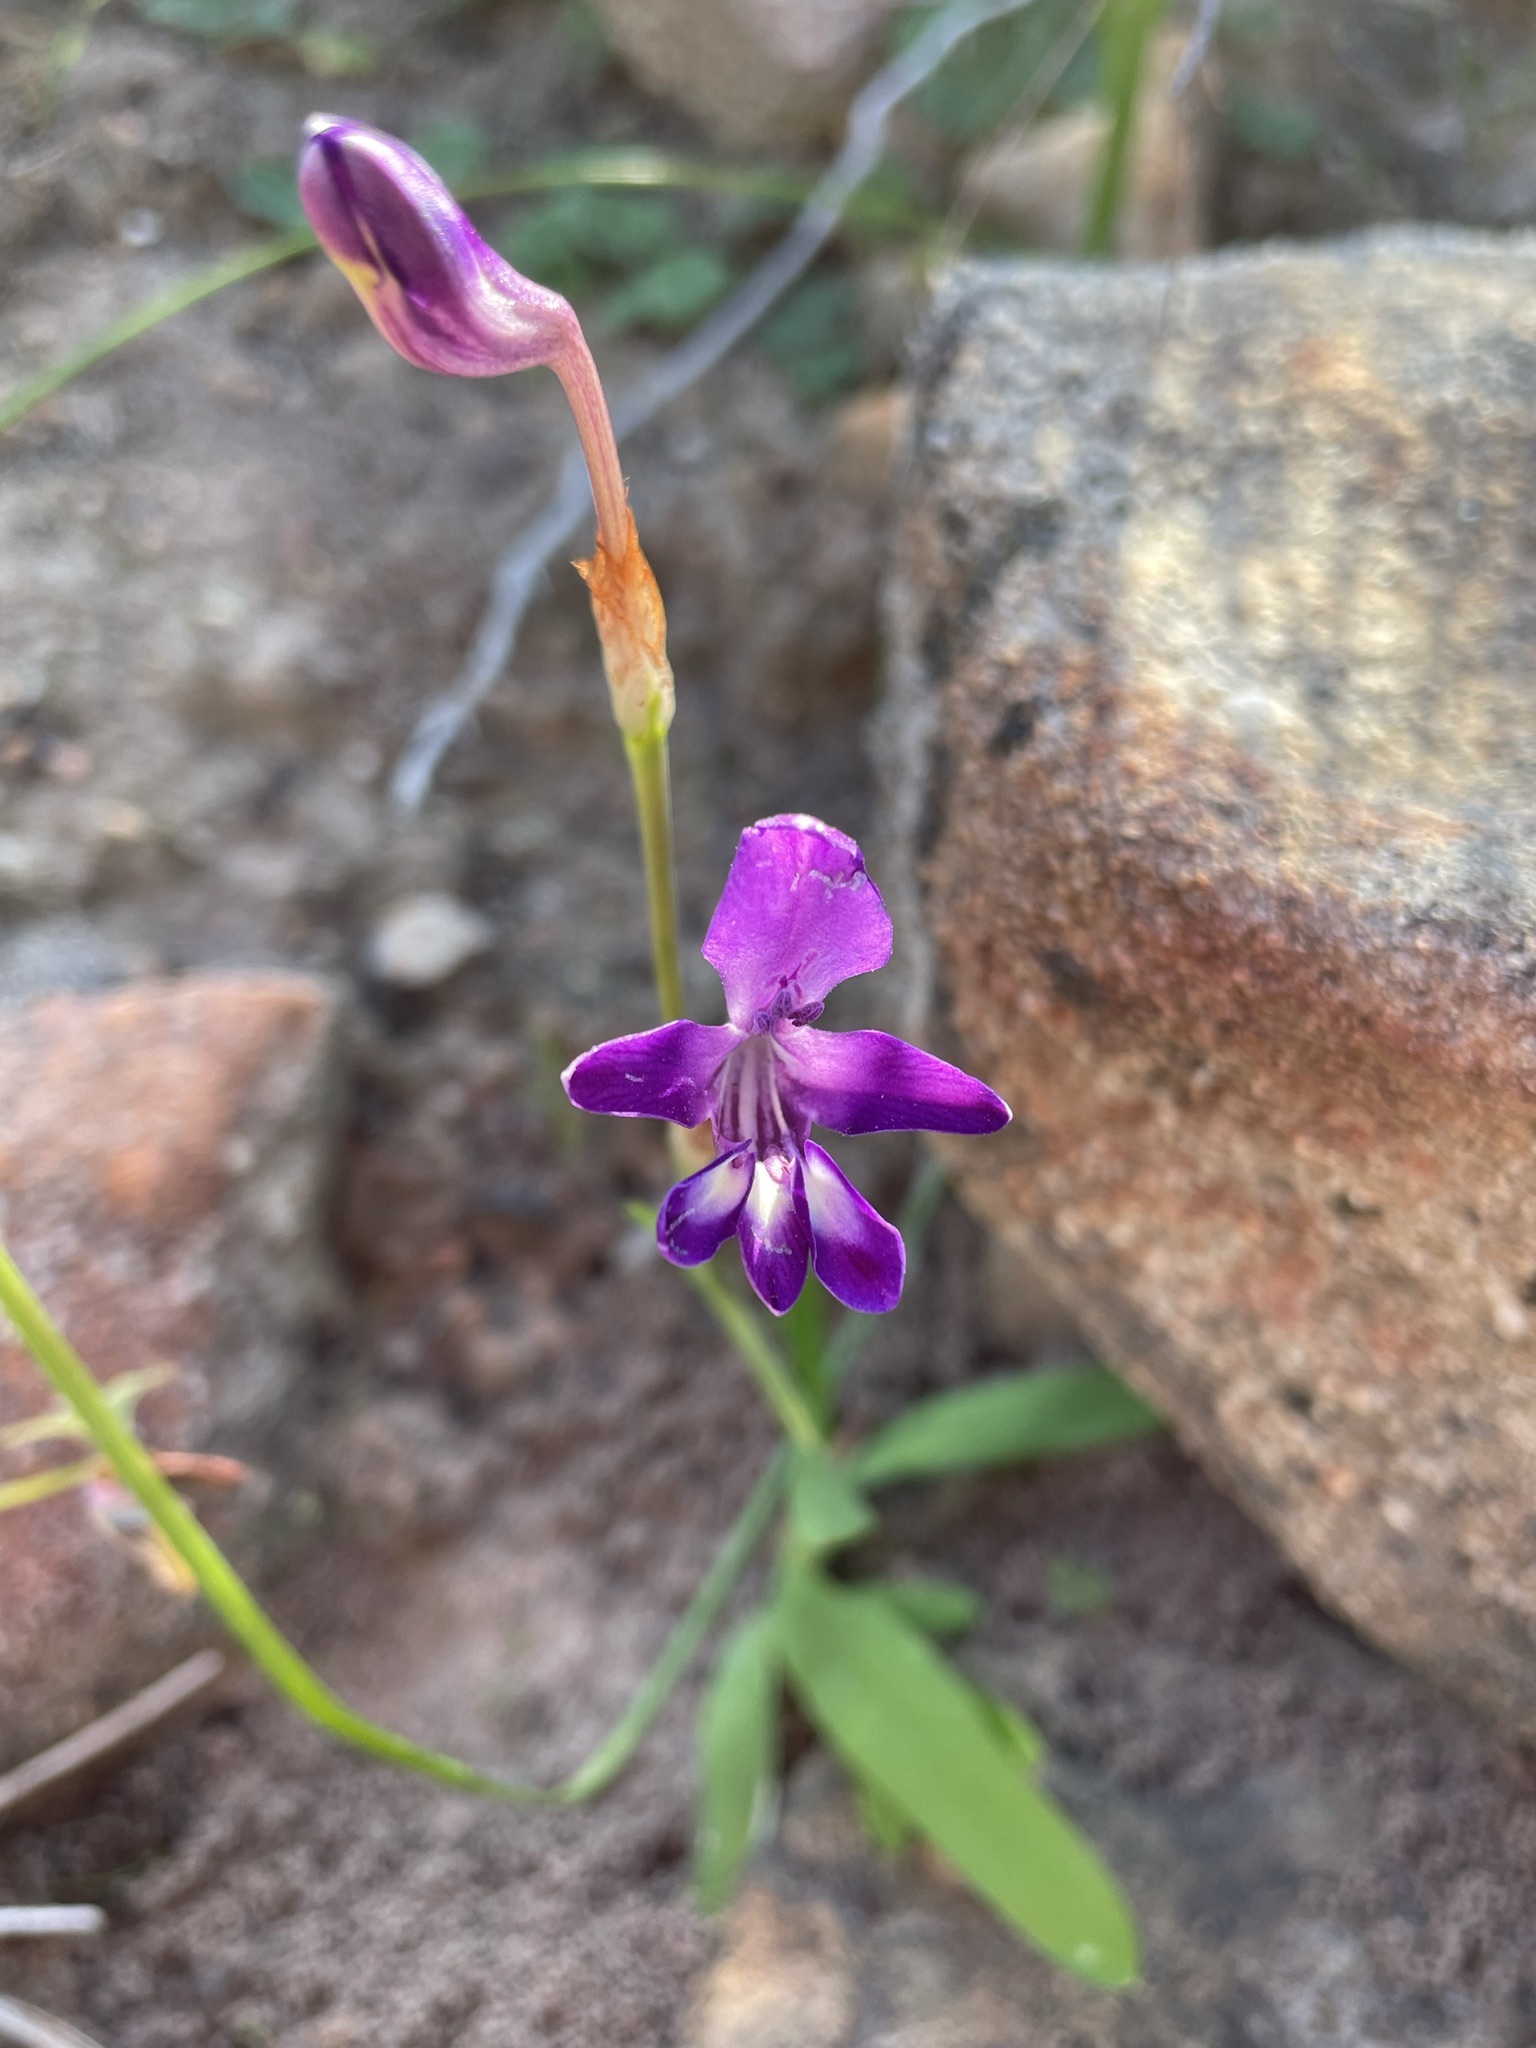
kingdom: Plantae
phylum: Tracheophyta
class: Liliopsida
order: Asparagales
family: Iridaceae
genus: Sparaxis
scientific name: Sparaxis metelerkampiae
